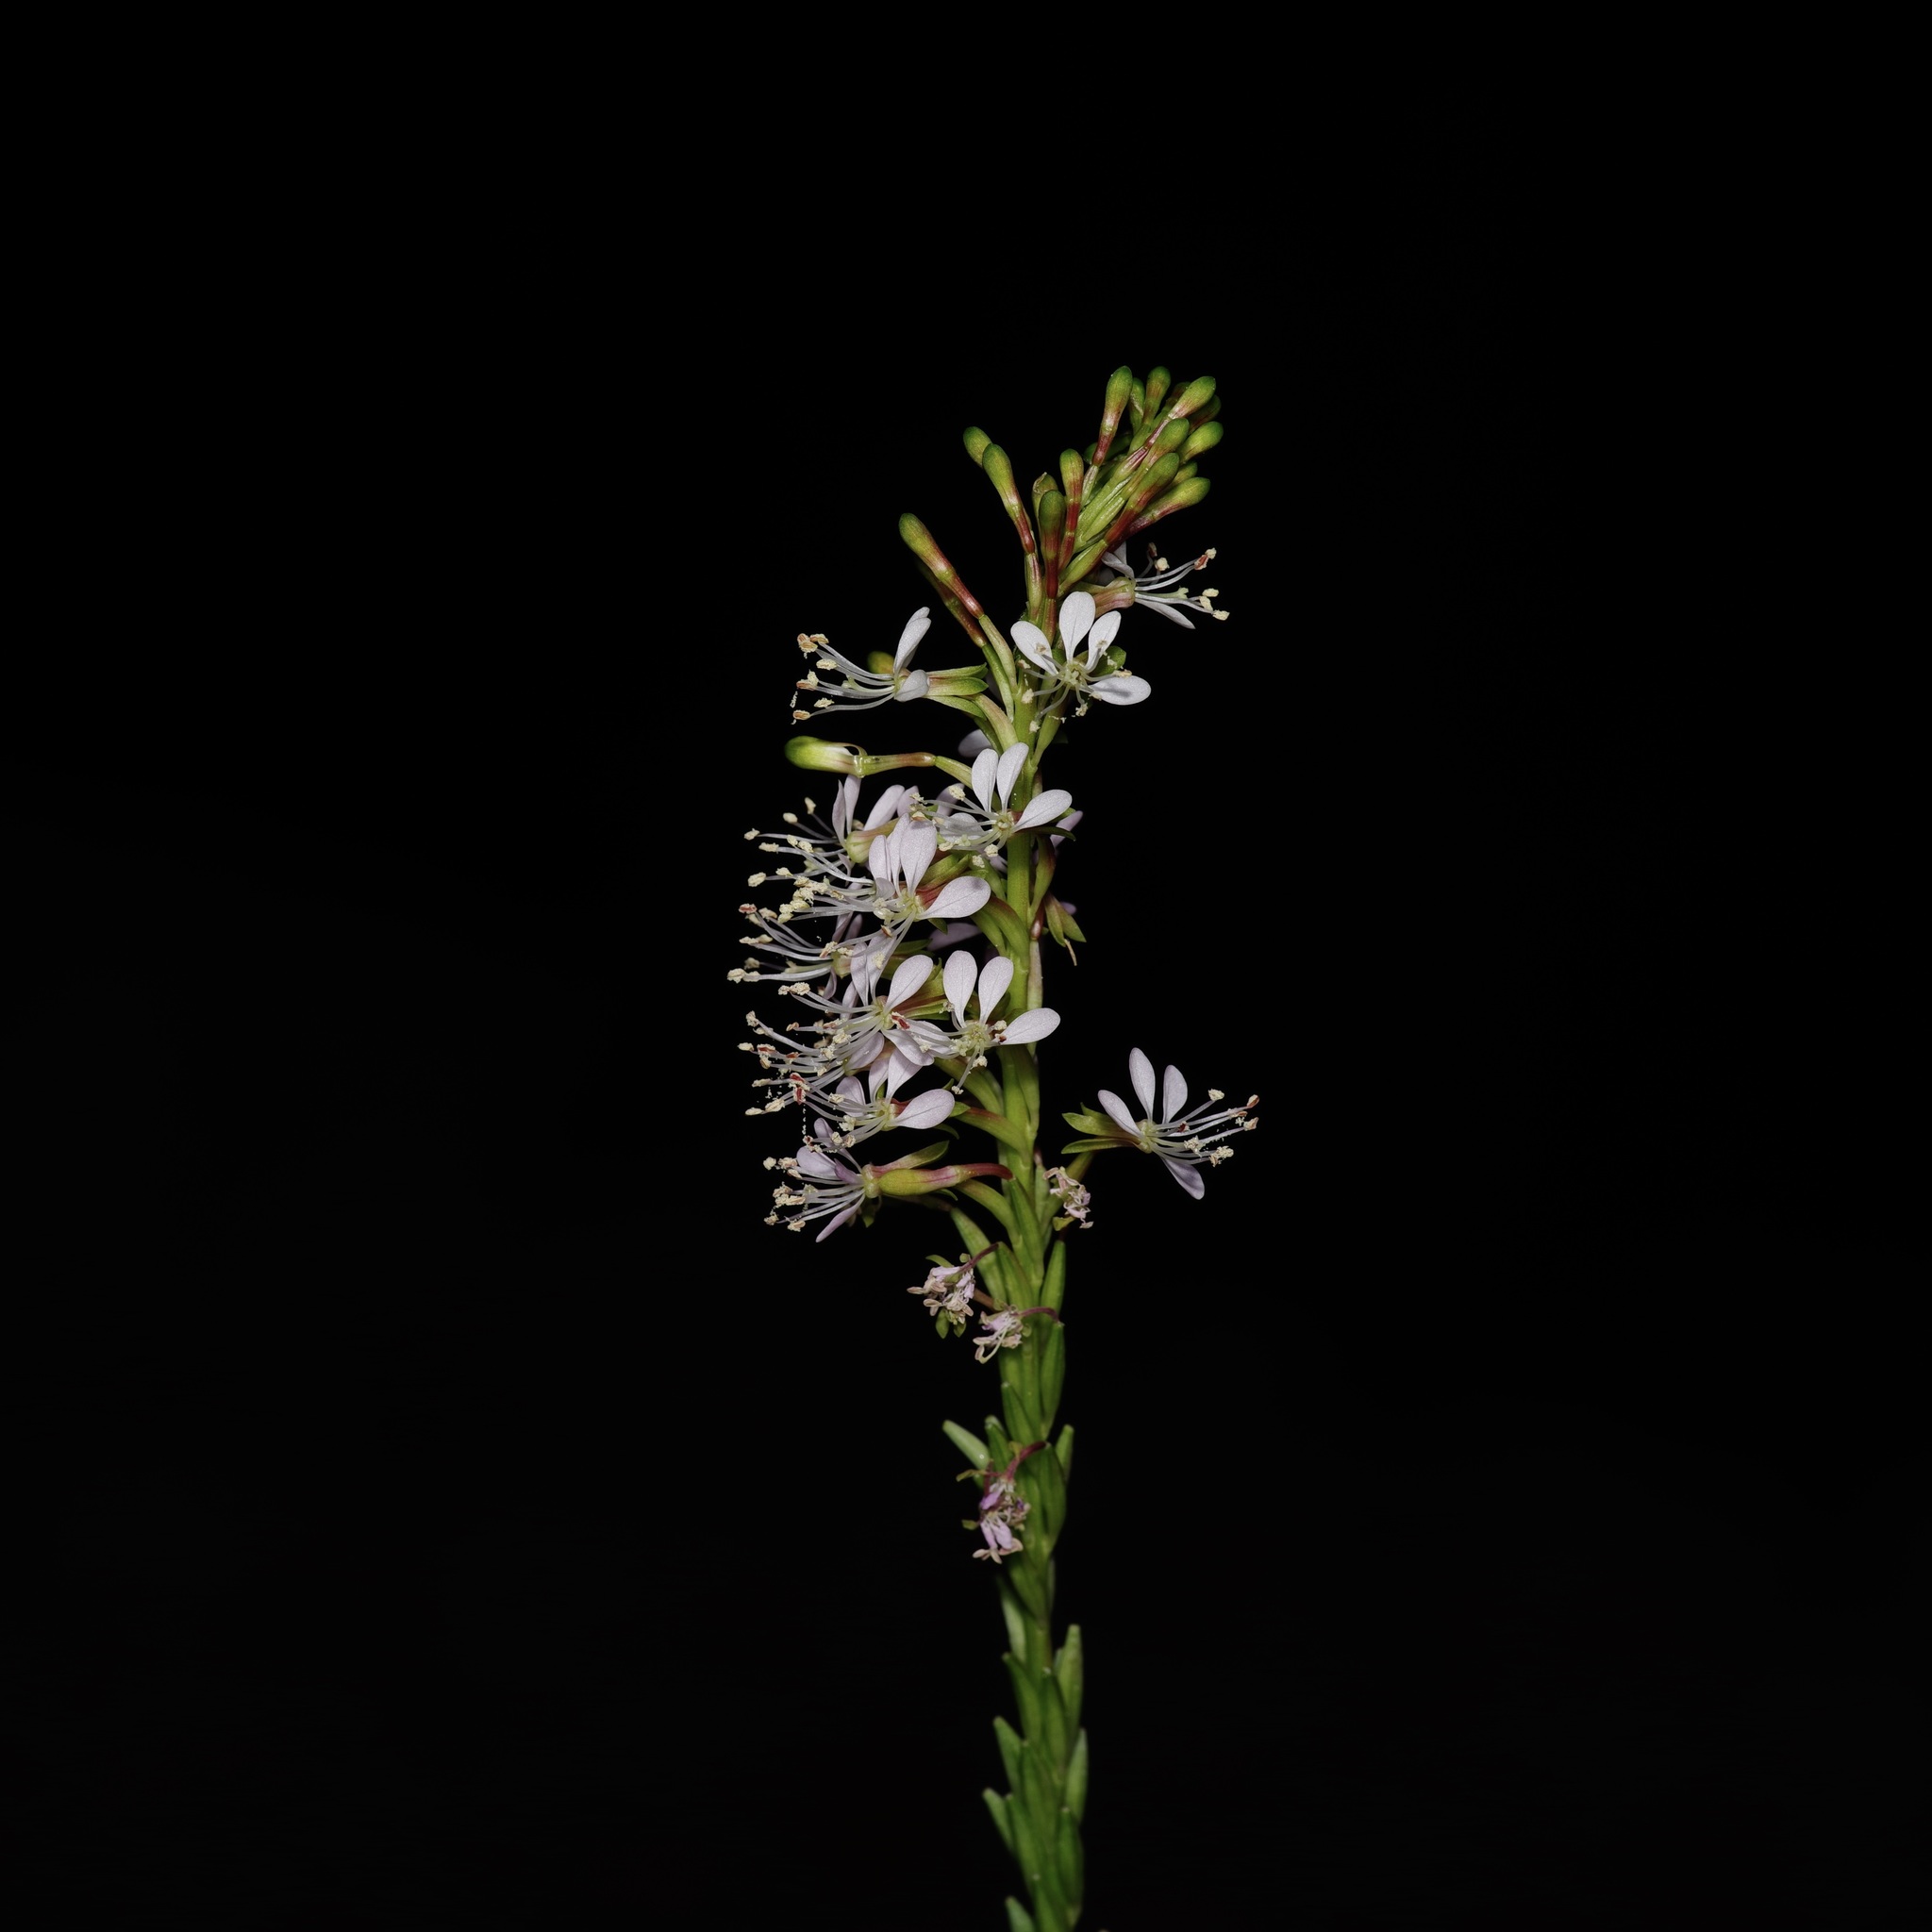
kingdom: Plantae
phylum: Tracheophyta
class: Magnoliopsida
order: Myrtales
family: Onagraceae
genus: Oenothera
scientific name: Oenothera curtiflora
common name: Velvetweed
